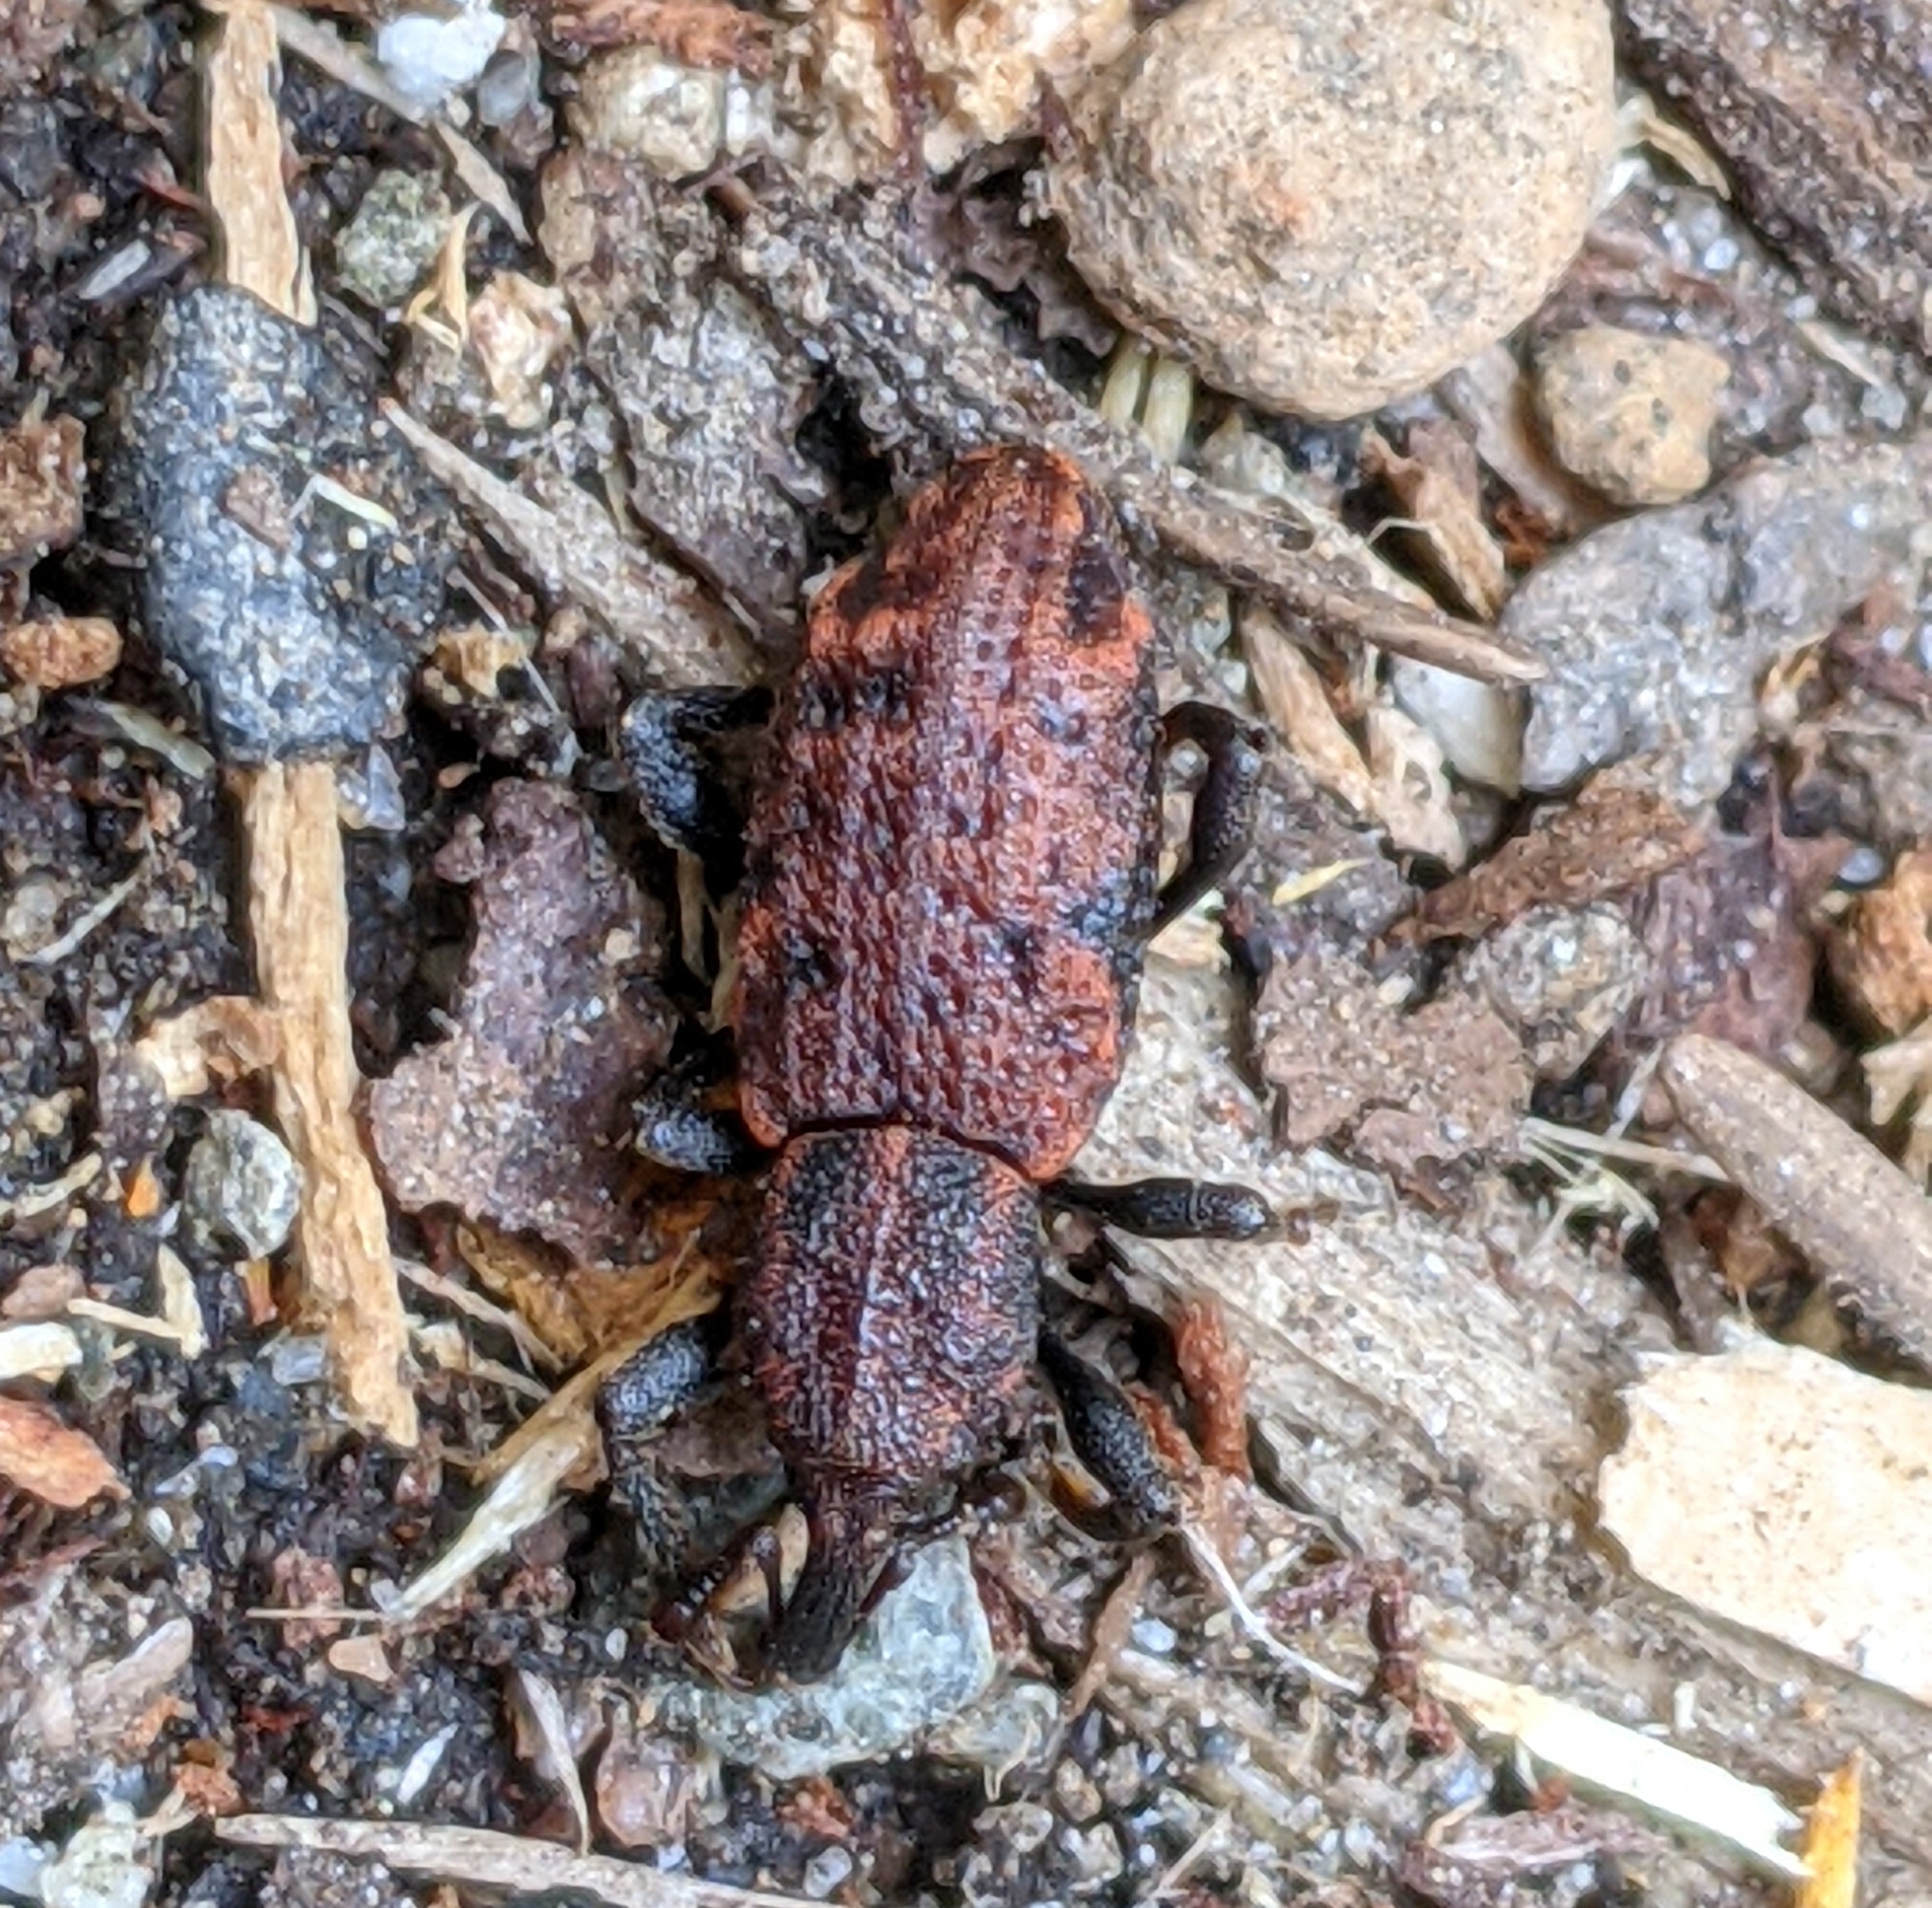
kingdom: Animalia
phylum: Arthropoda
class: Insecta
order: Coleoptera
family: Curculionidae
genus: Steremnius
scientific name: Steremnius carinatus
